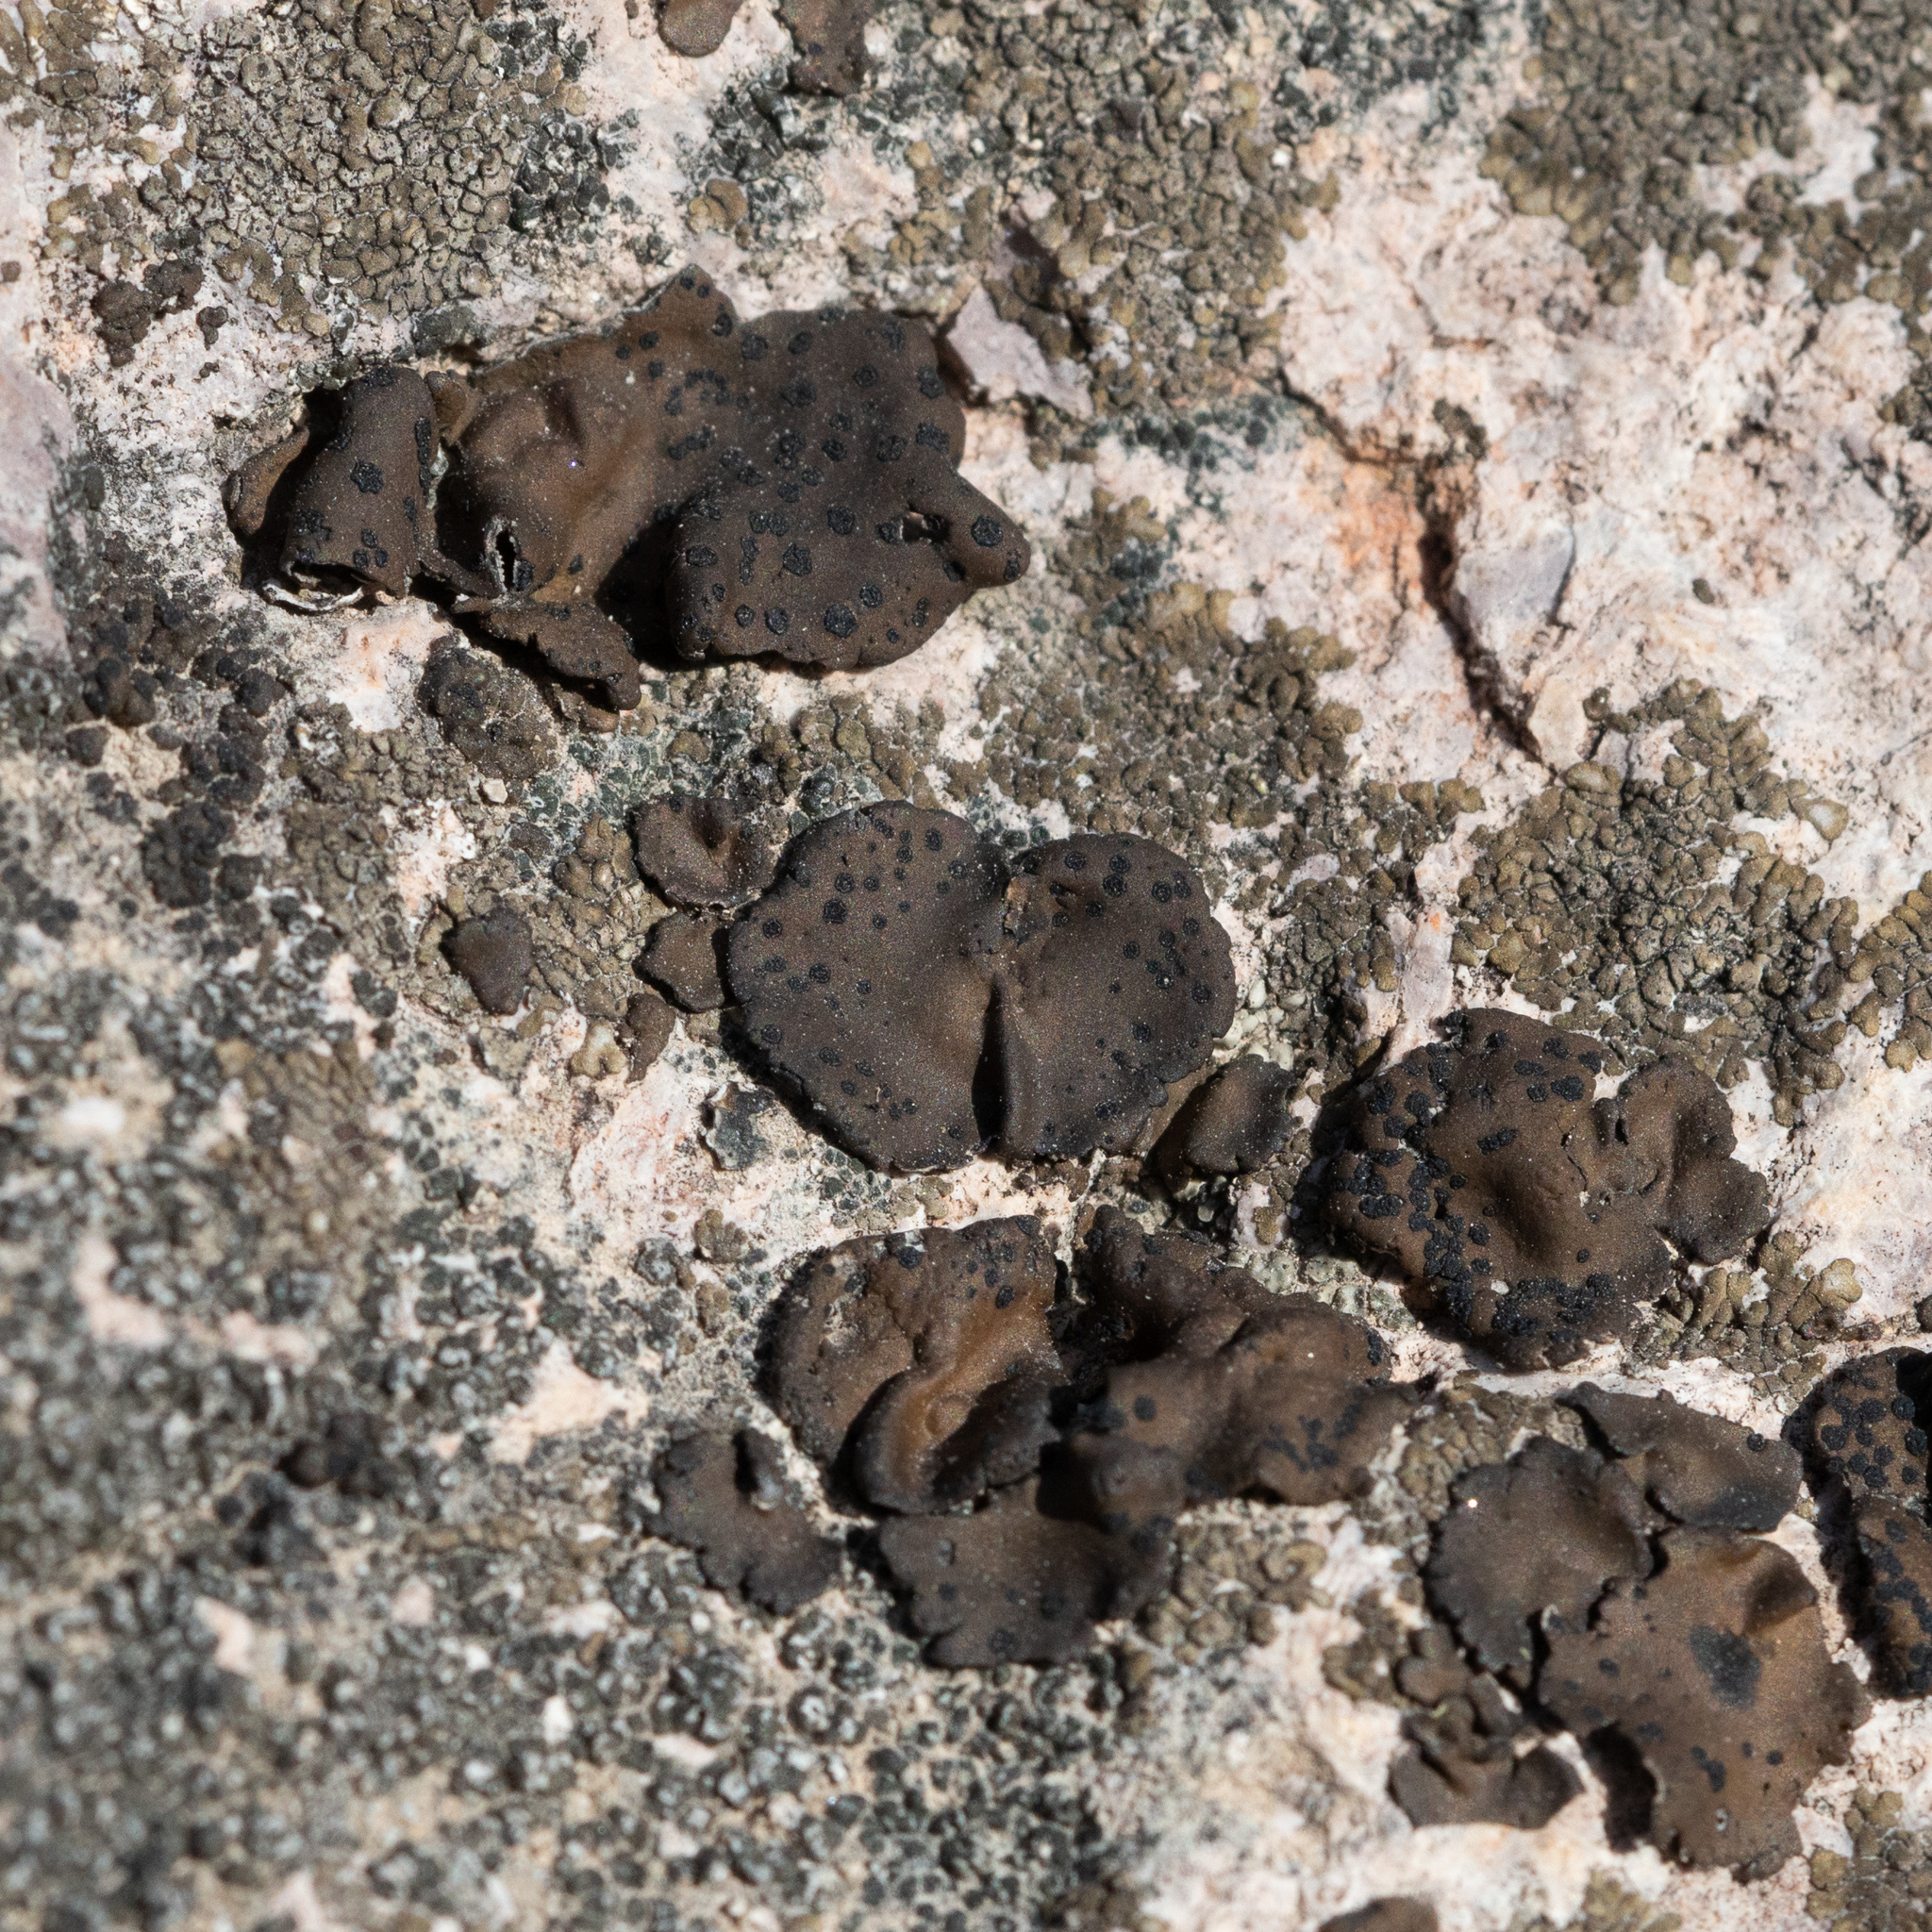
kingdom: Fungi
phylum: Ascomycota
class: Lecanoromycetes
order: Umbilicariales
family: Umbilicariaceae
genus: Umbilicaria
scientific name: Umbilicaria phaea
